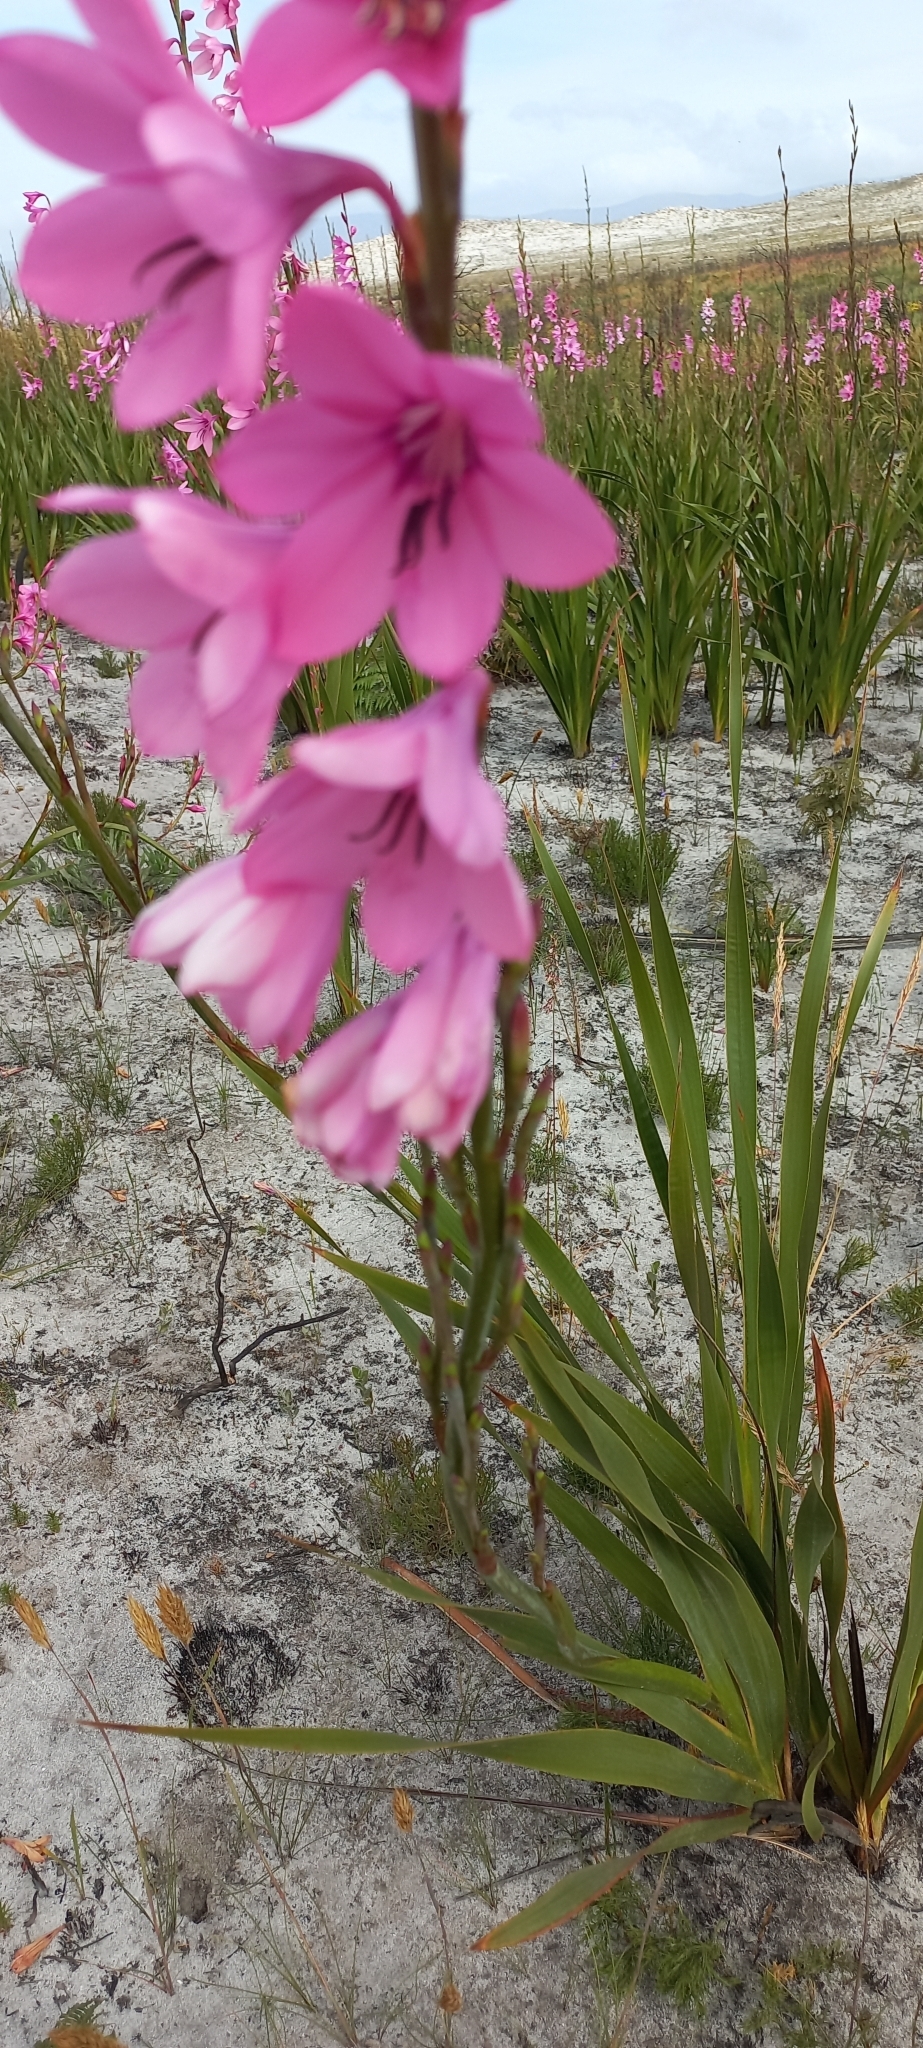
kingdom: Plantae
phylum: Tracheophyta
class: Liliopsida
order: Asparagales
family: Iridaceae
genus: Watsonia
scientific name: Watsonia borbonica
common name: Bugle-lily
